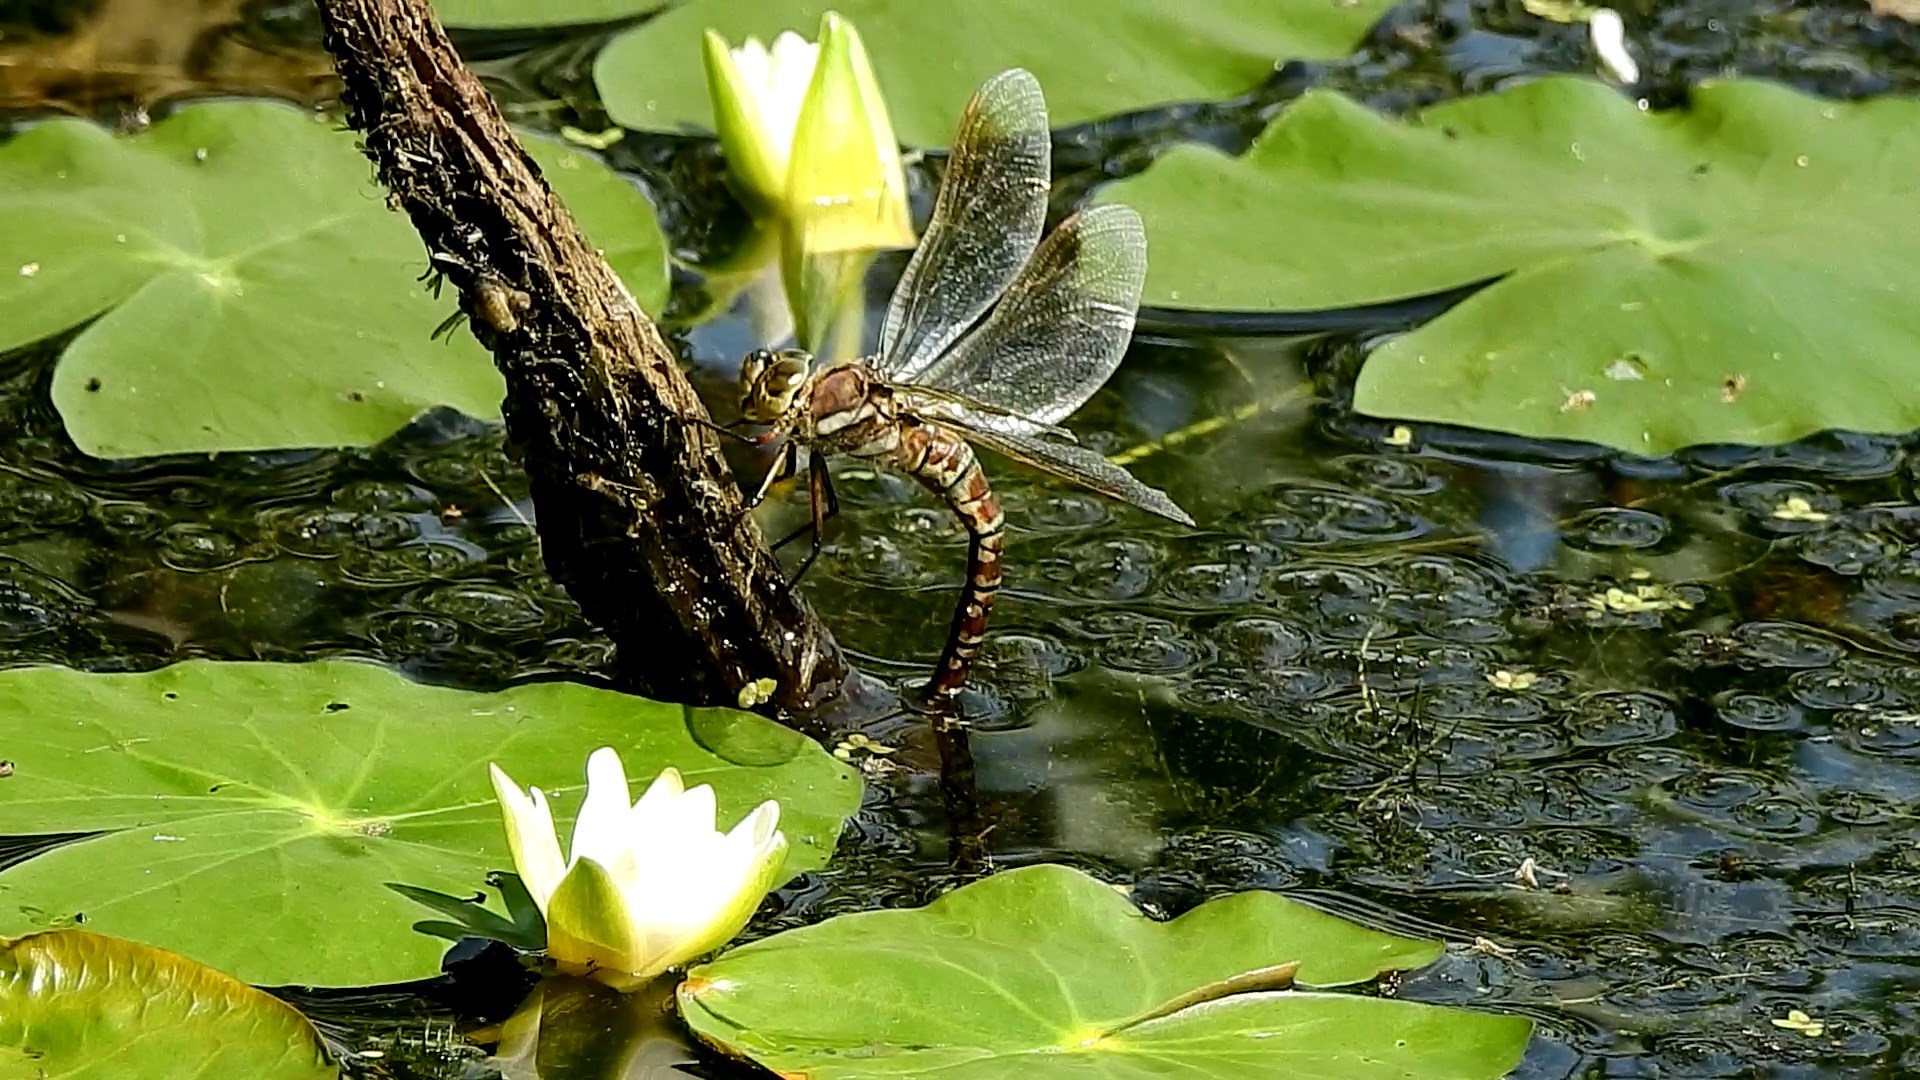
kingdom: Animalia
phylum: Arthropoda
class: Insecta
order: Odonata
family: Aeshnidae
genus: Aeshna
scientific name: Aeshna crenata
